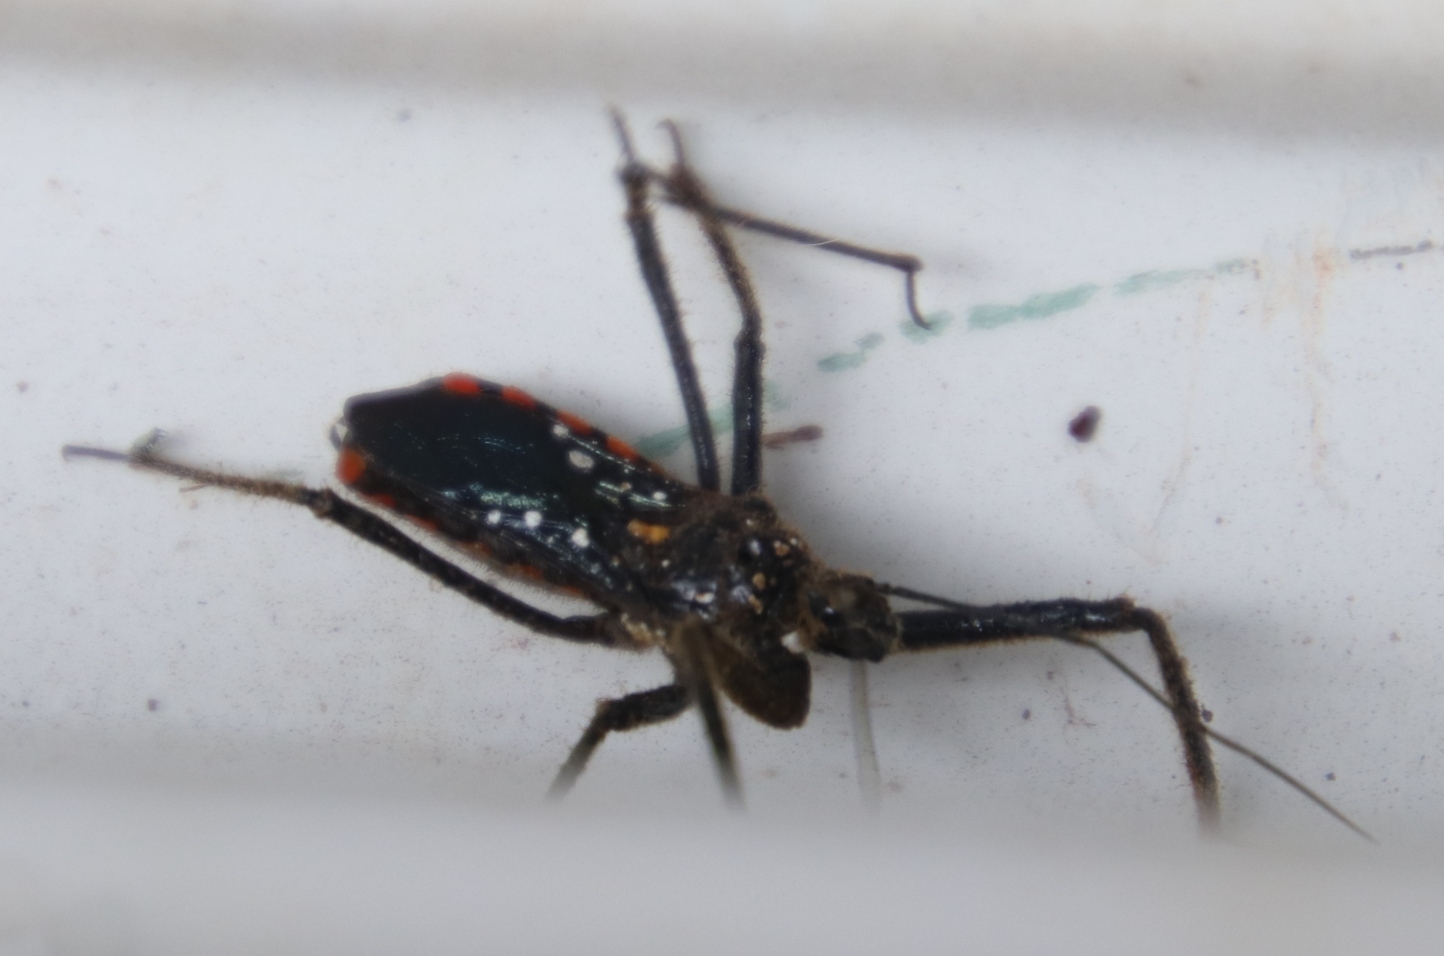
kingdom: Animalia
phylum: Arthropoda
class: Insecta
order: Hemiptera
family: Reduviidae
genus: Rhynocoris
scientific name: Rhynocoris albopunctatus
